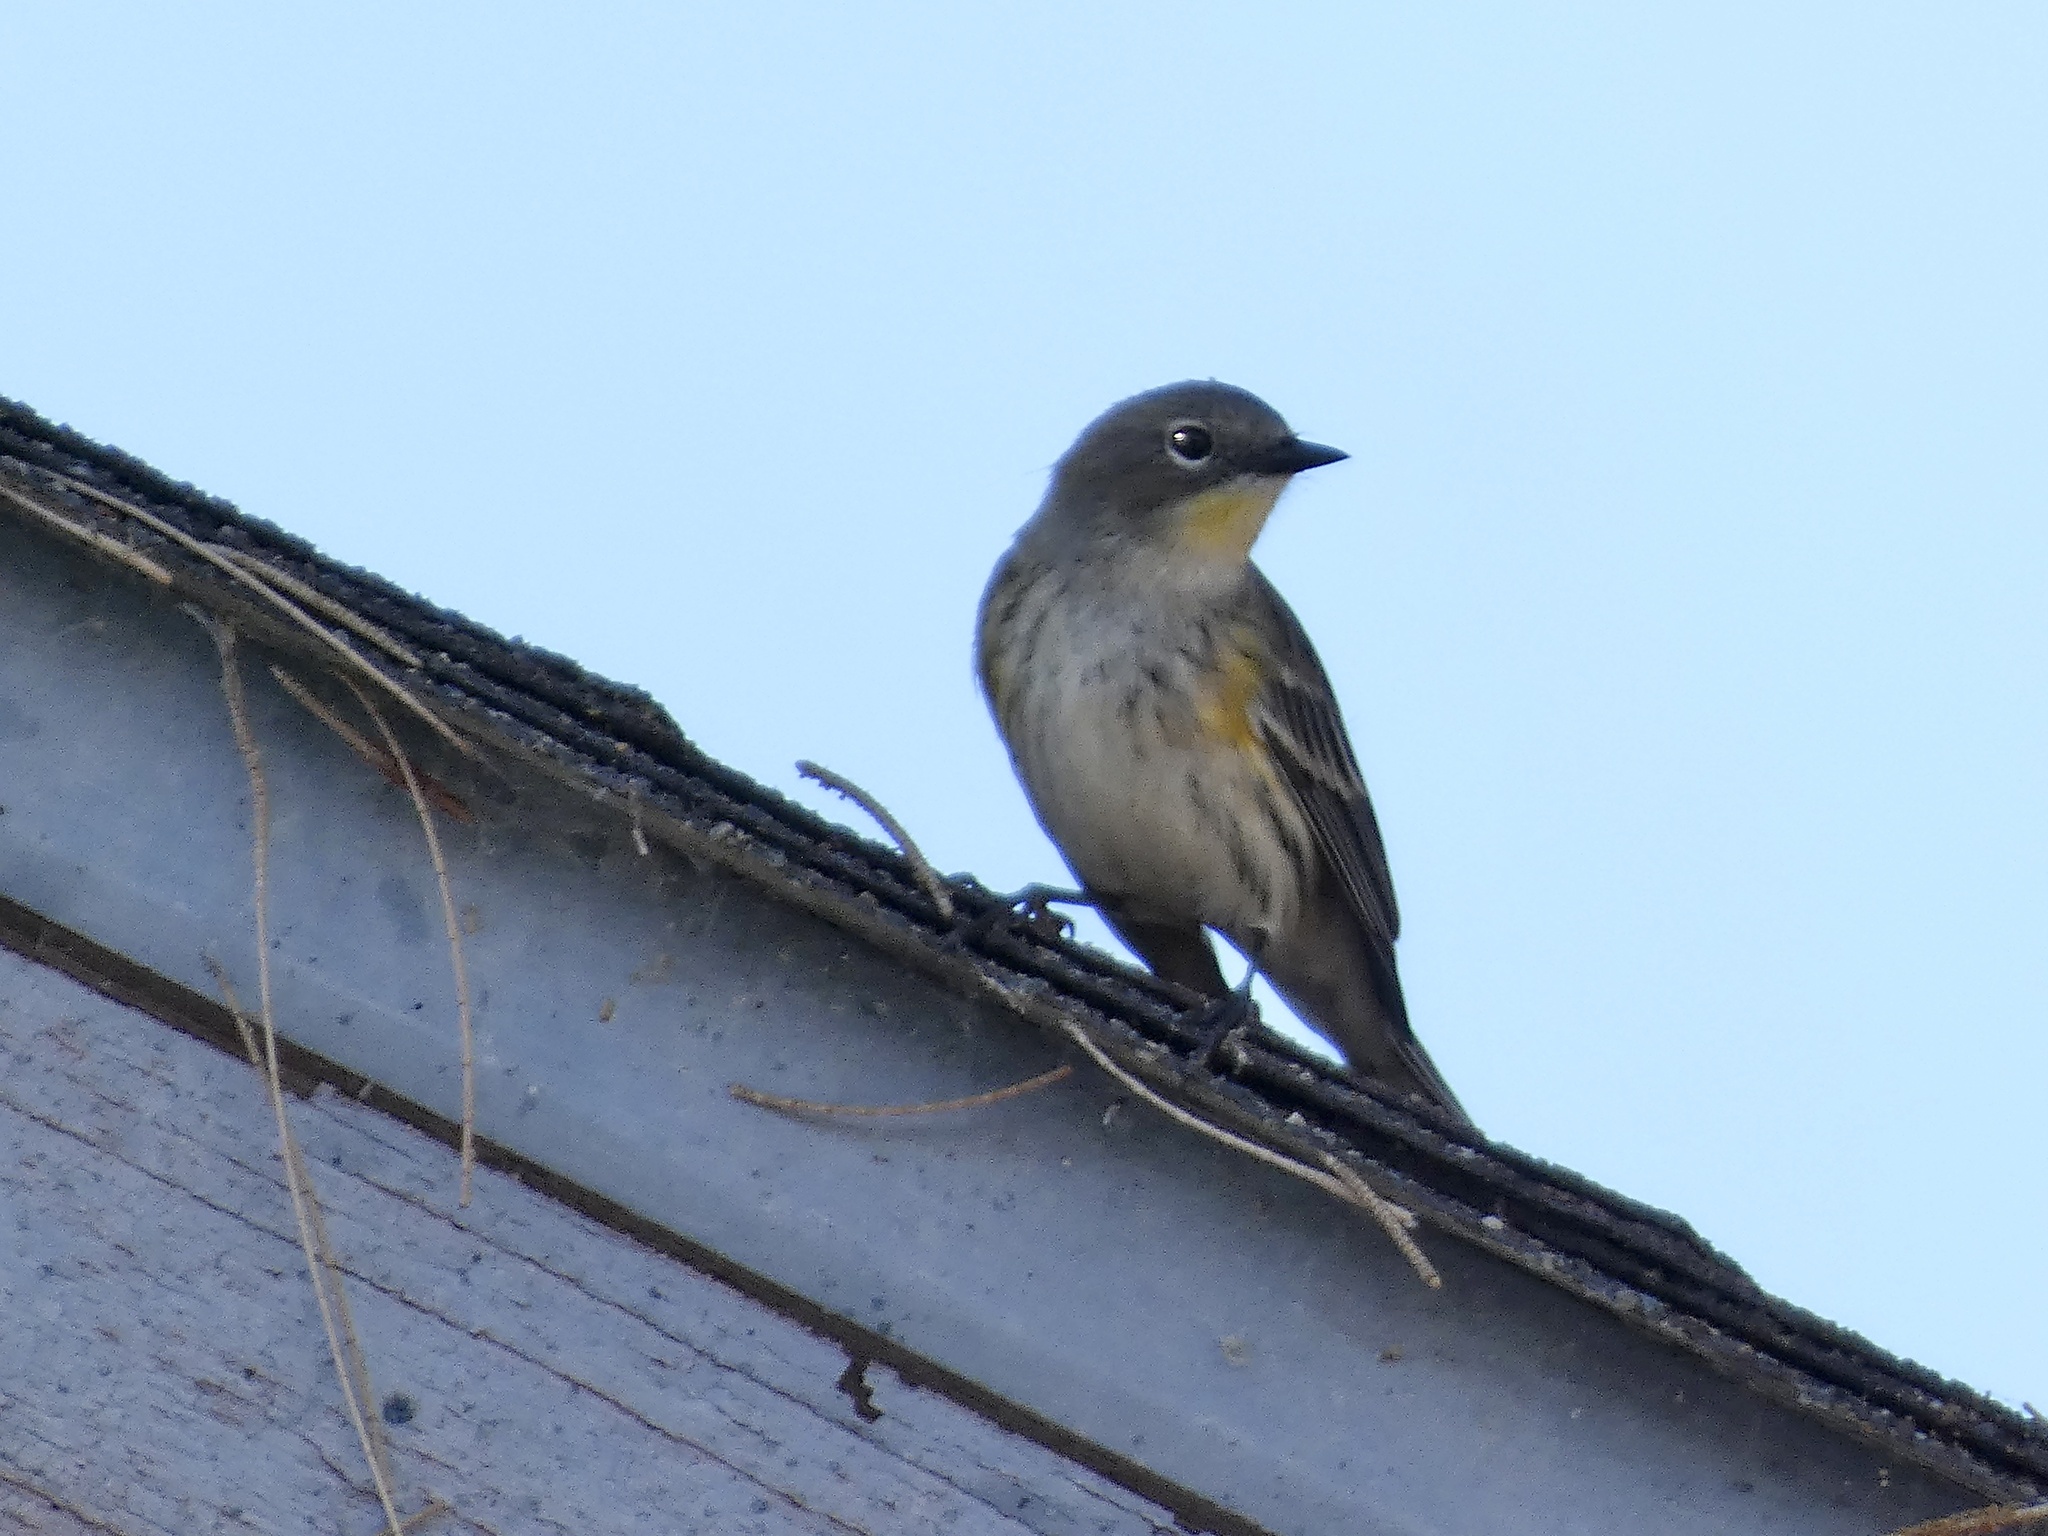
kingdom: Animalia
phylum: Chordata
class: Aves
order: Passeriformes
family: Parulidae
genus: Setophaga
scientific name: Setophaga coronata
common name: Myrtle warbler
